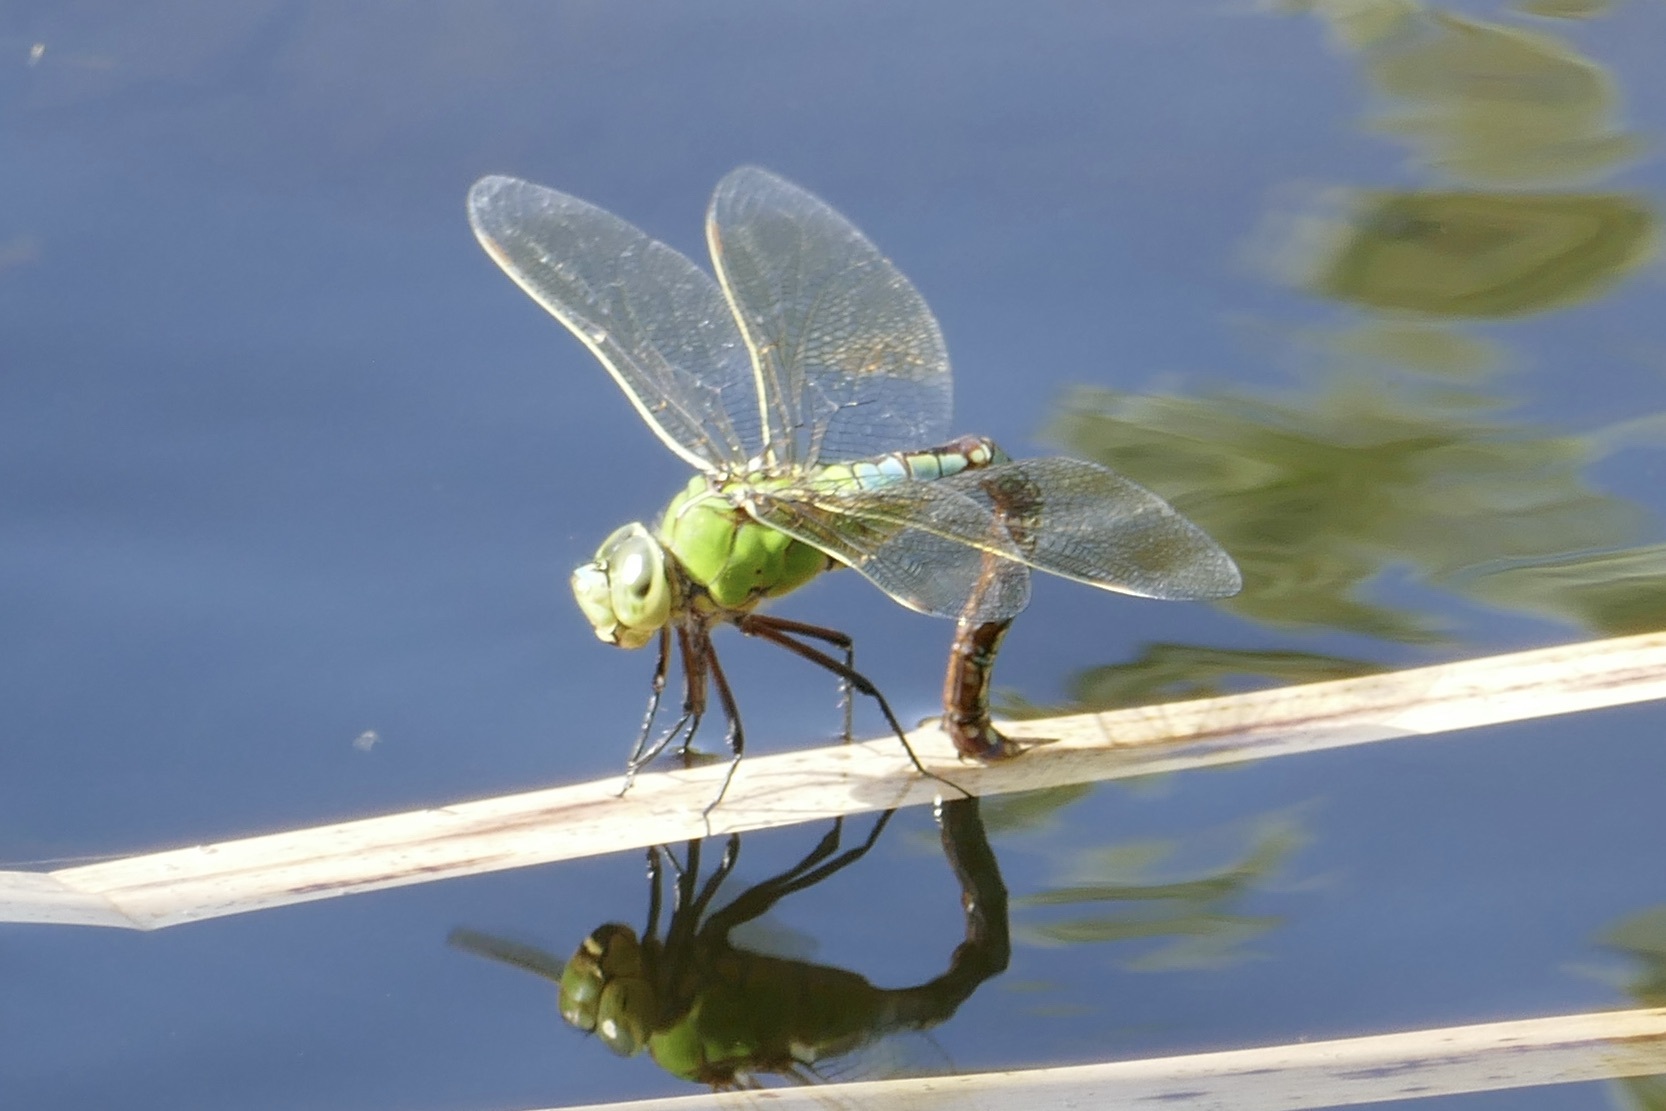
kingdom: Animalia
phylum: Arthropoda
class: Insecta
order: Odonata
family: Aeshnidae
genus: Anax
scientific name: Anax imperator
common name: Emperor dragonfly
